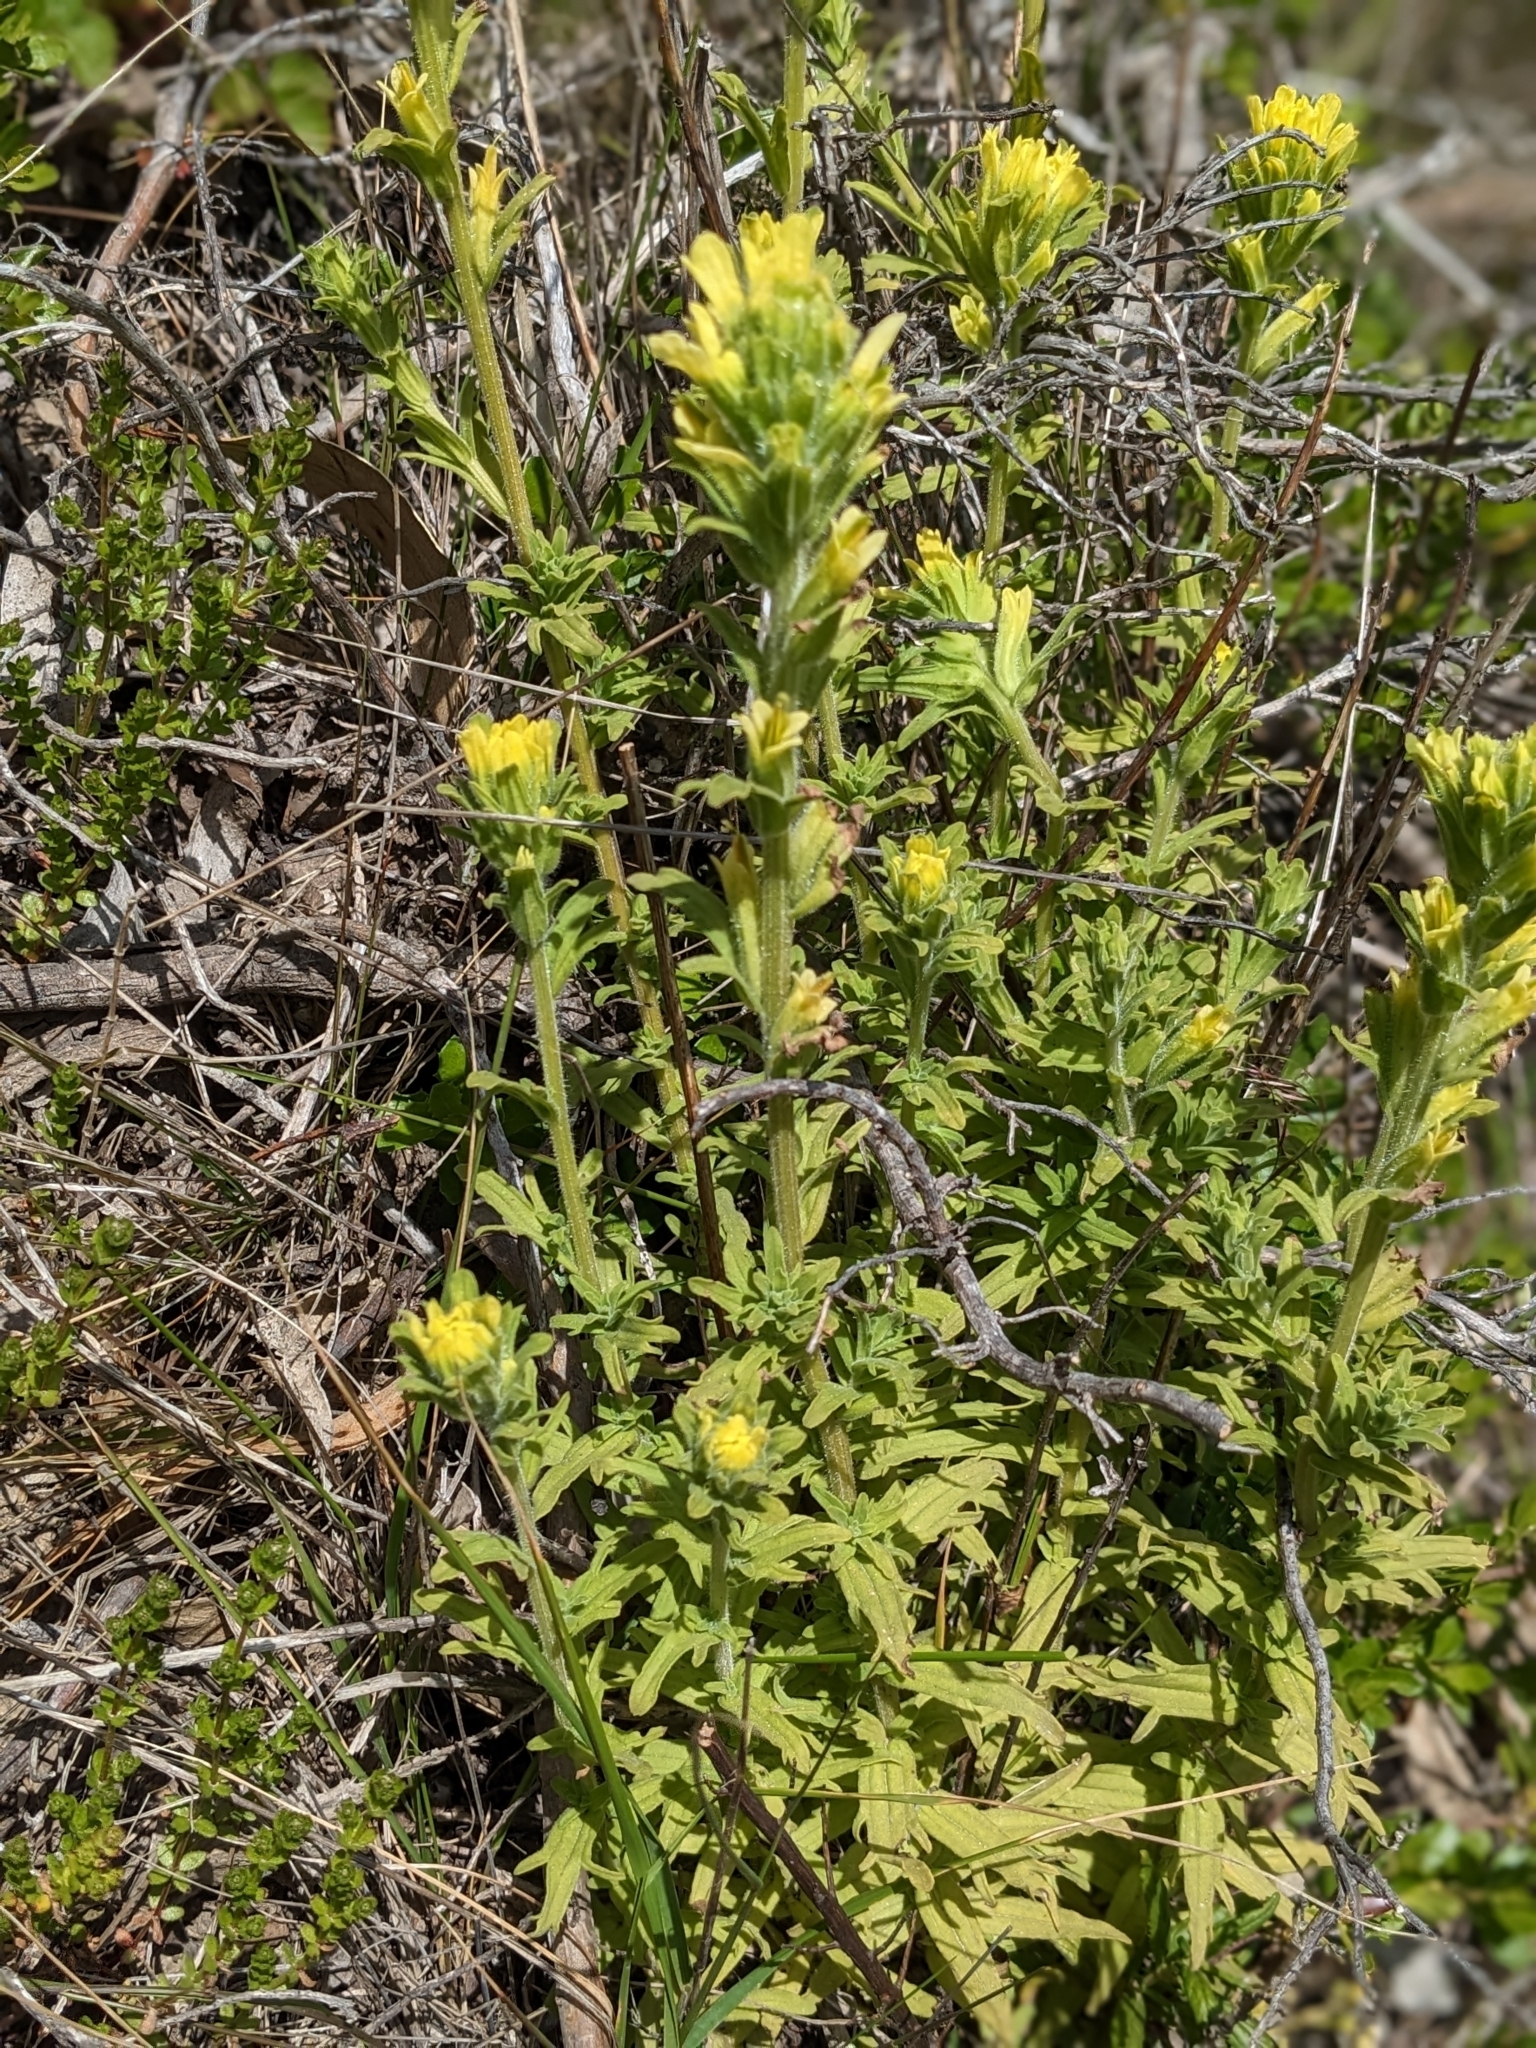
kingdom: Plantae
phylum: Tracheophyta
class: Magnoliopsida
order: Lamiales
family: Orobanchaceae
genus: Castilleja
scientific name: Castilleja wightii
